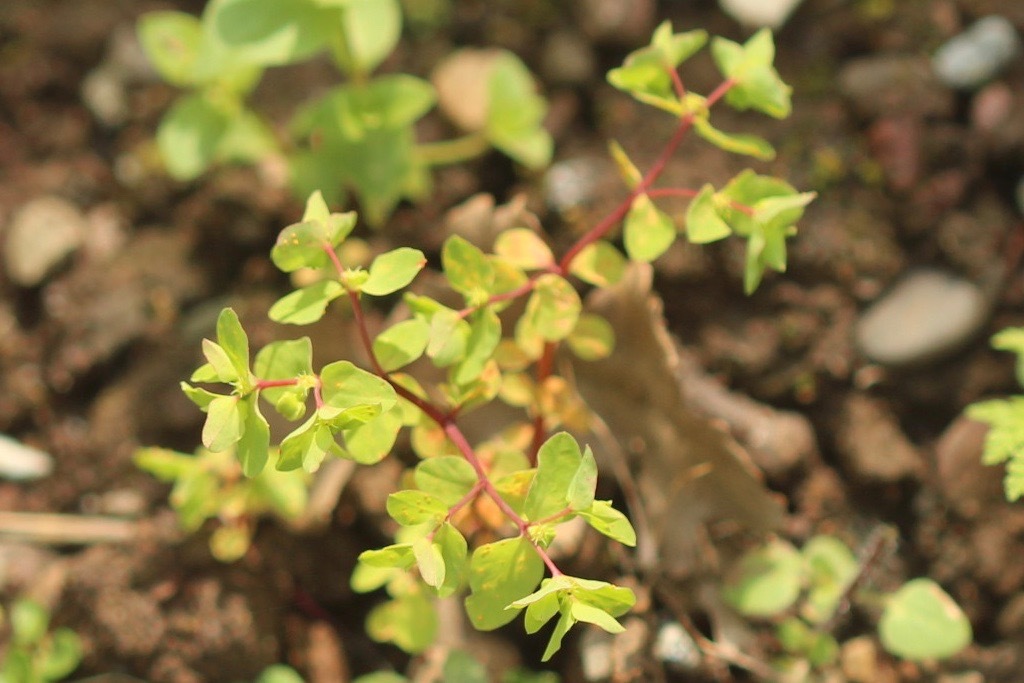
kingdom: Plantae
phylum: Tracheophyta
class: Magnoliopsida
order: Malpighiales
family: Euphorbiaceae
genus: Euphorbia
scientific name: Euphorbia peplus
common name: Petty spurge
